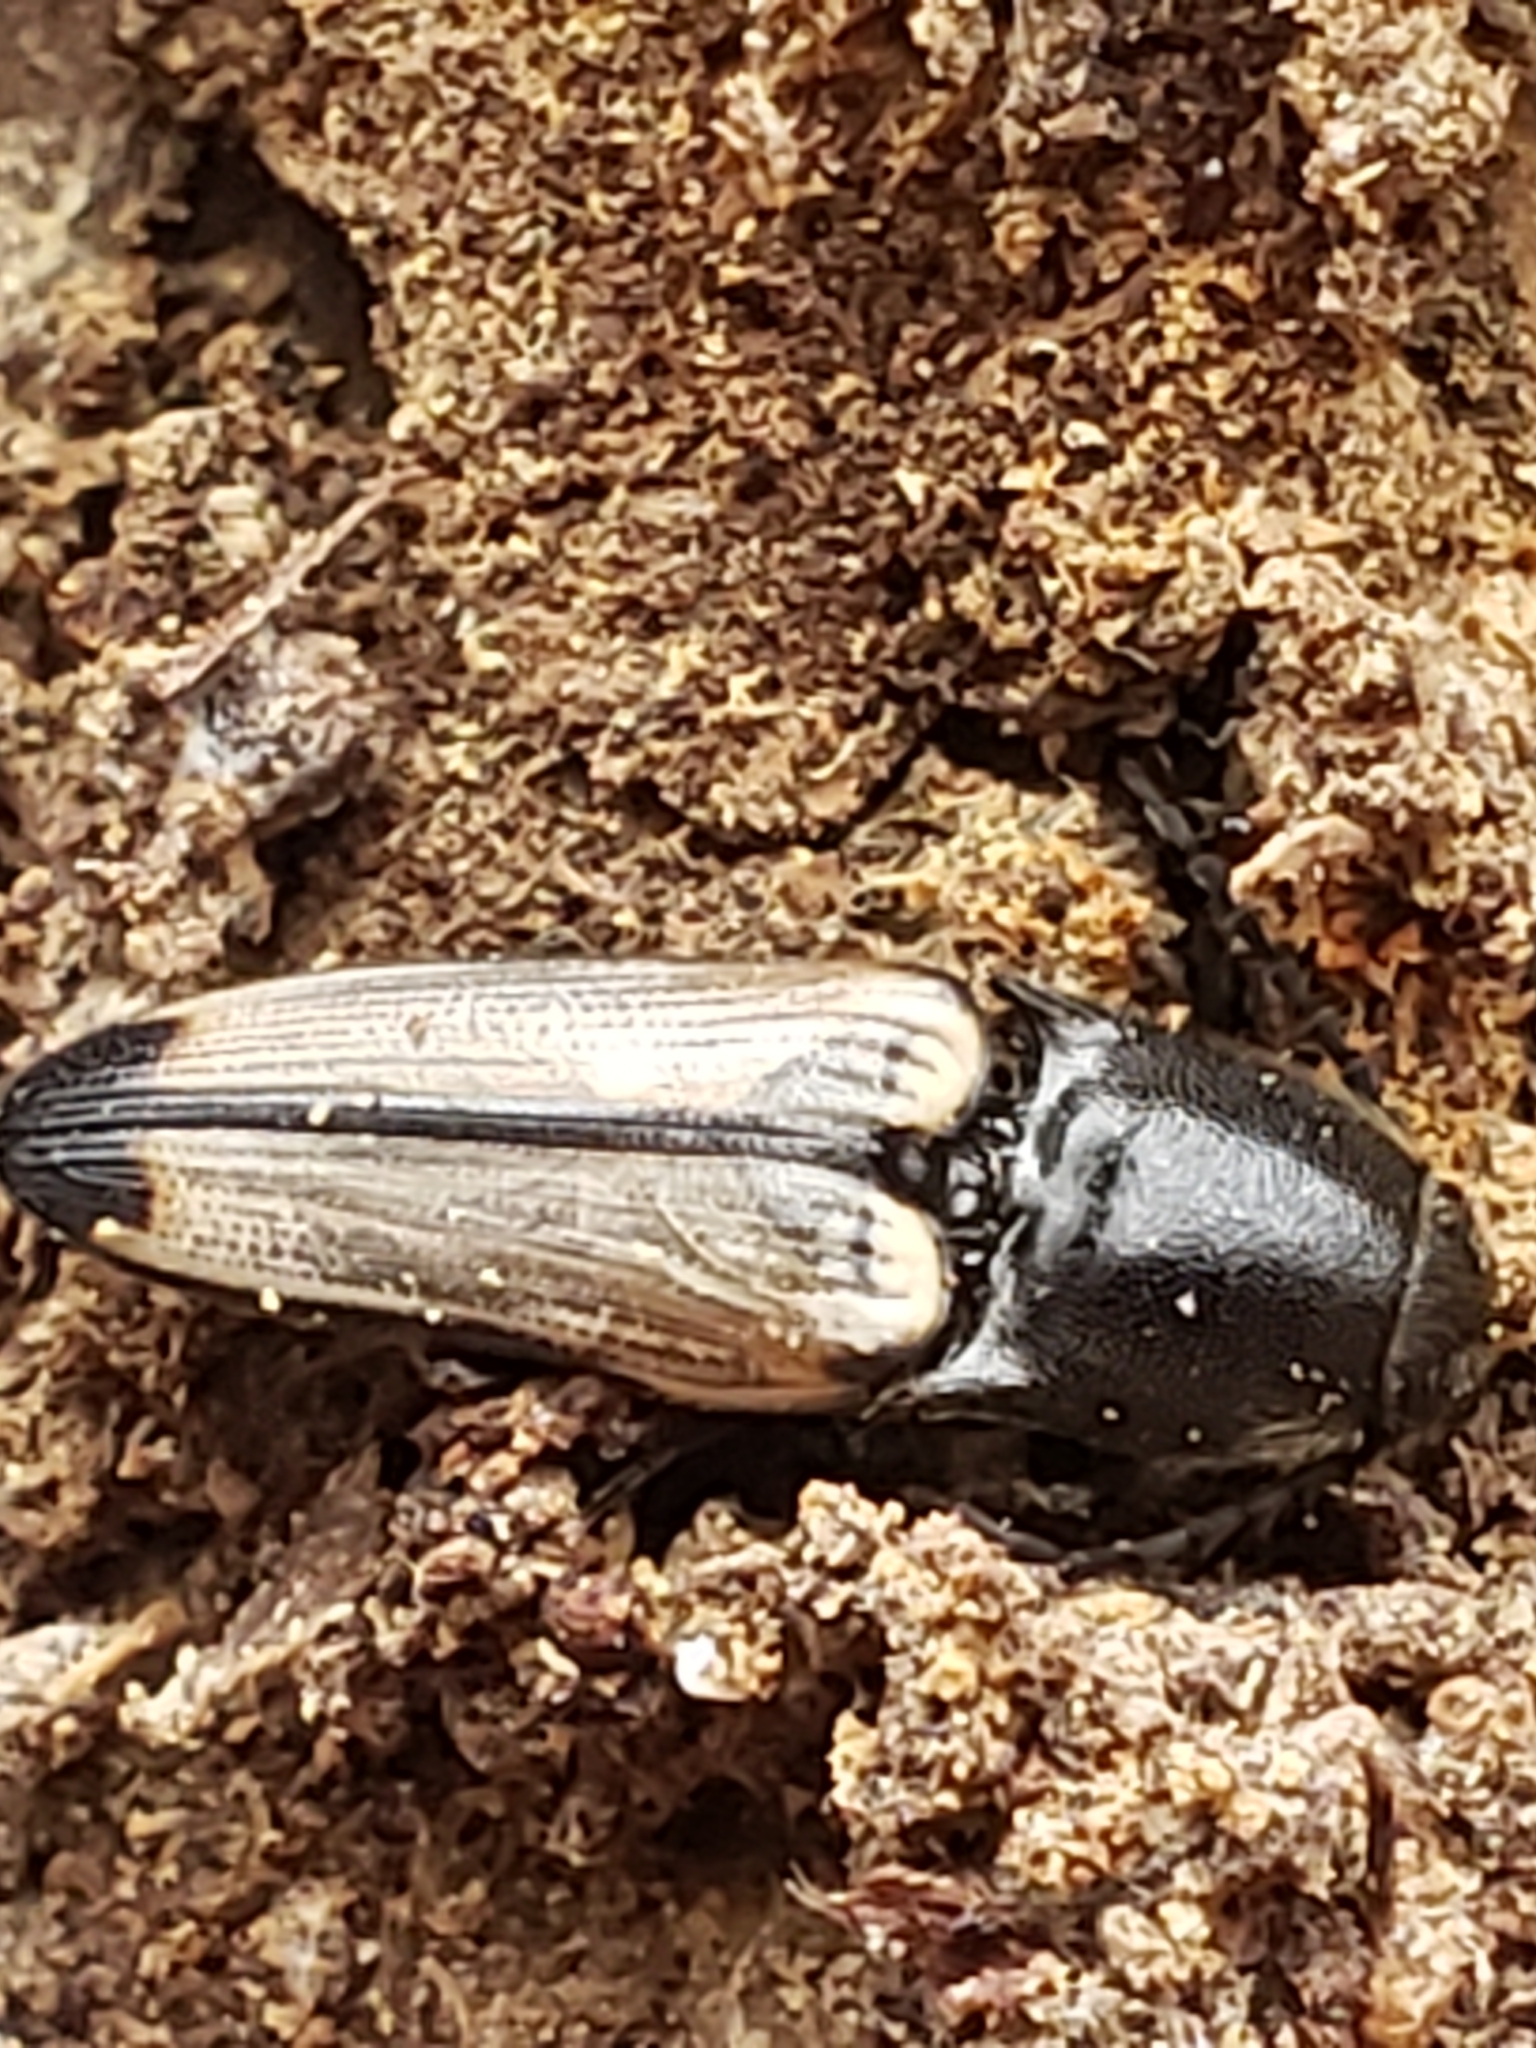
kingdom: Animalia
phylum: Arthropoda
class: Insecta
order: Coleoptera
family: Elateridae
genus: Ampedus
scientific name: Ampedus linteus
